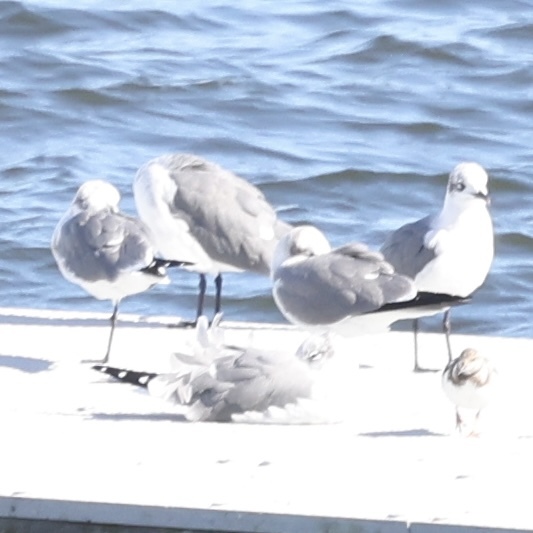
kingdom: Animalia
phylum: Chordata
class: Aves
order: Charadriiformes
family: Laridae
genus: Leucophaeus
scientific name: Leucophaeus atricilla
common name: Laughing gull
